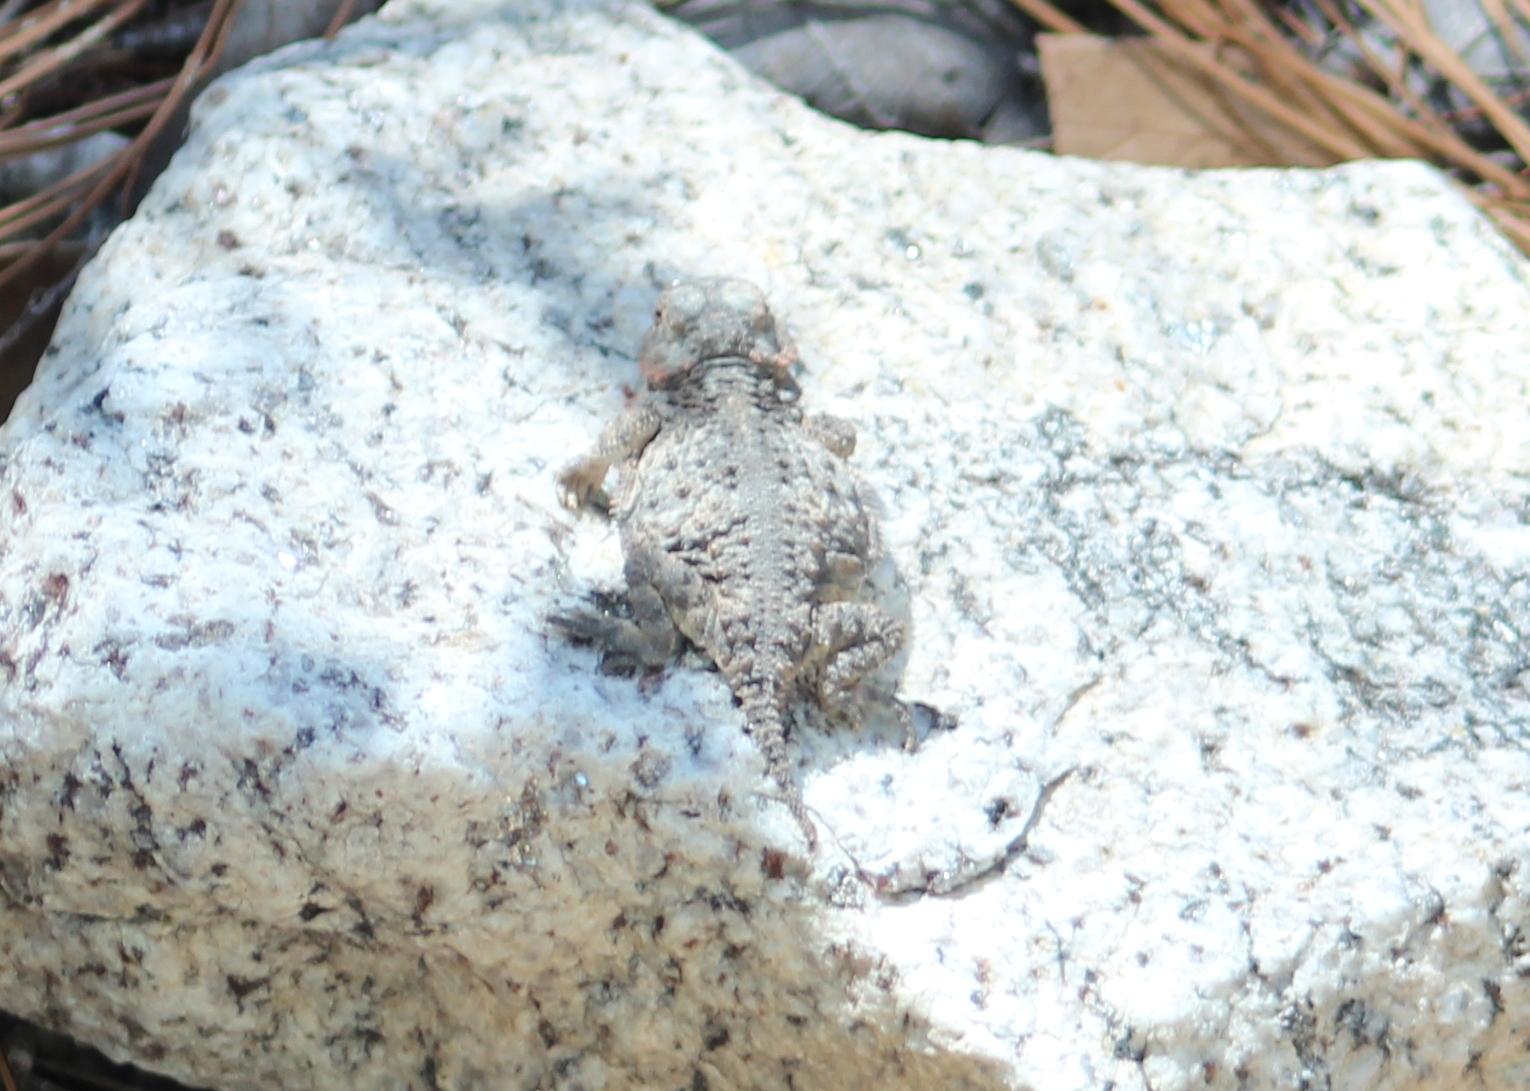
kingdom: Animalia
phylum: Chordata
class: Squamata
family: Phrynosomatidae
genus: Phrynosoma
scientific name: Phrynosoma hernandesi
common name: Greater short-horned lizard
